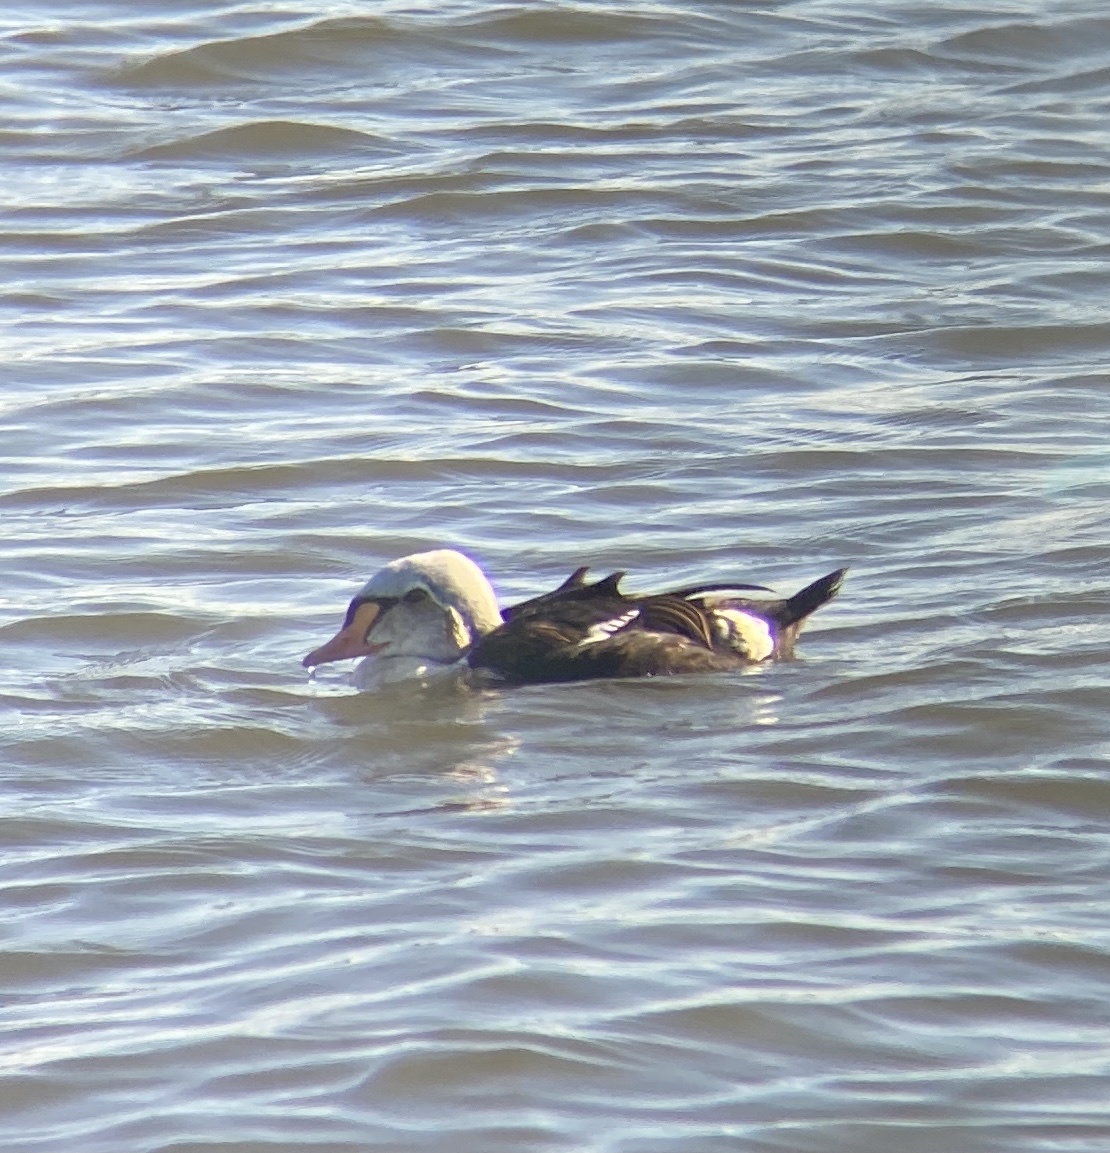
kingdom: Animalia
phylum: Chordata
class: Aves
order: Anseriformes
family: Anatidae
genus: Somateria
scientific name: Somateria spectabilis
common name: King eider
